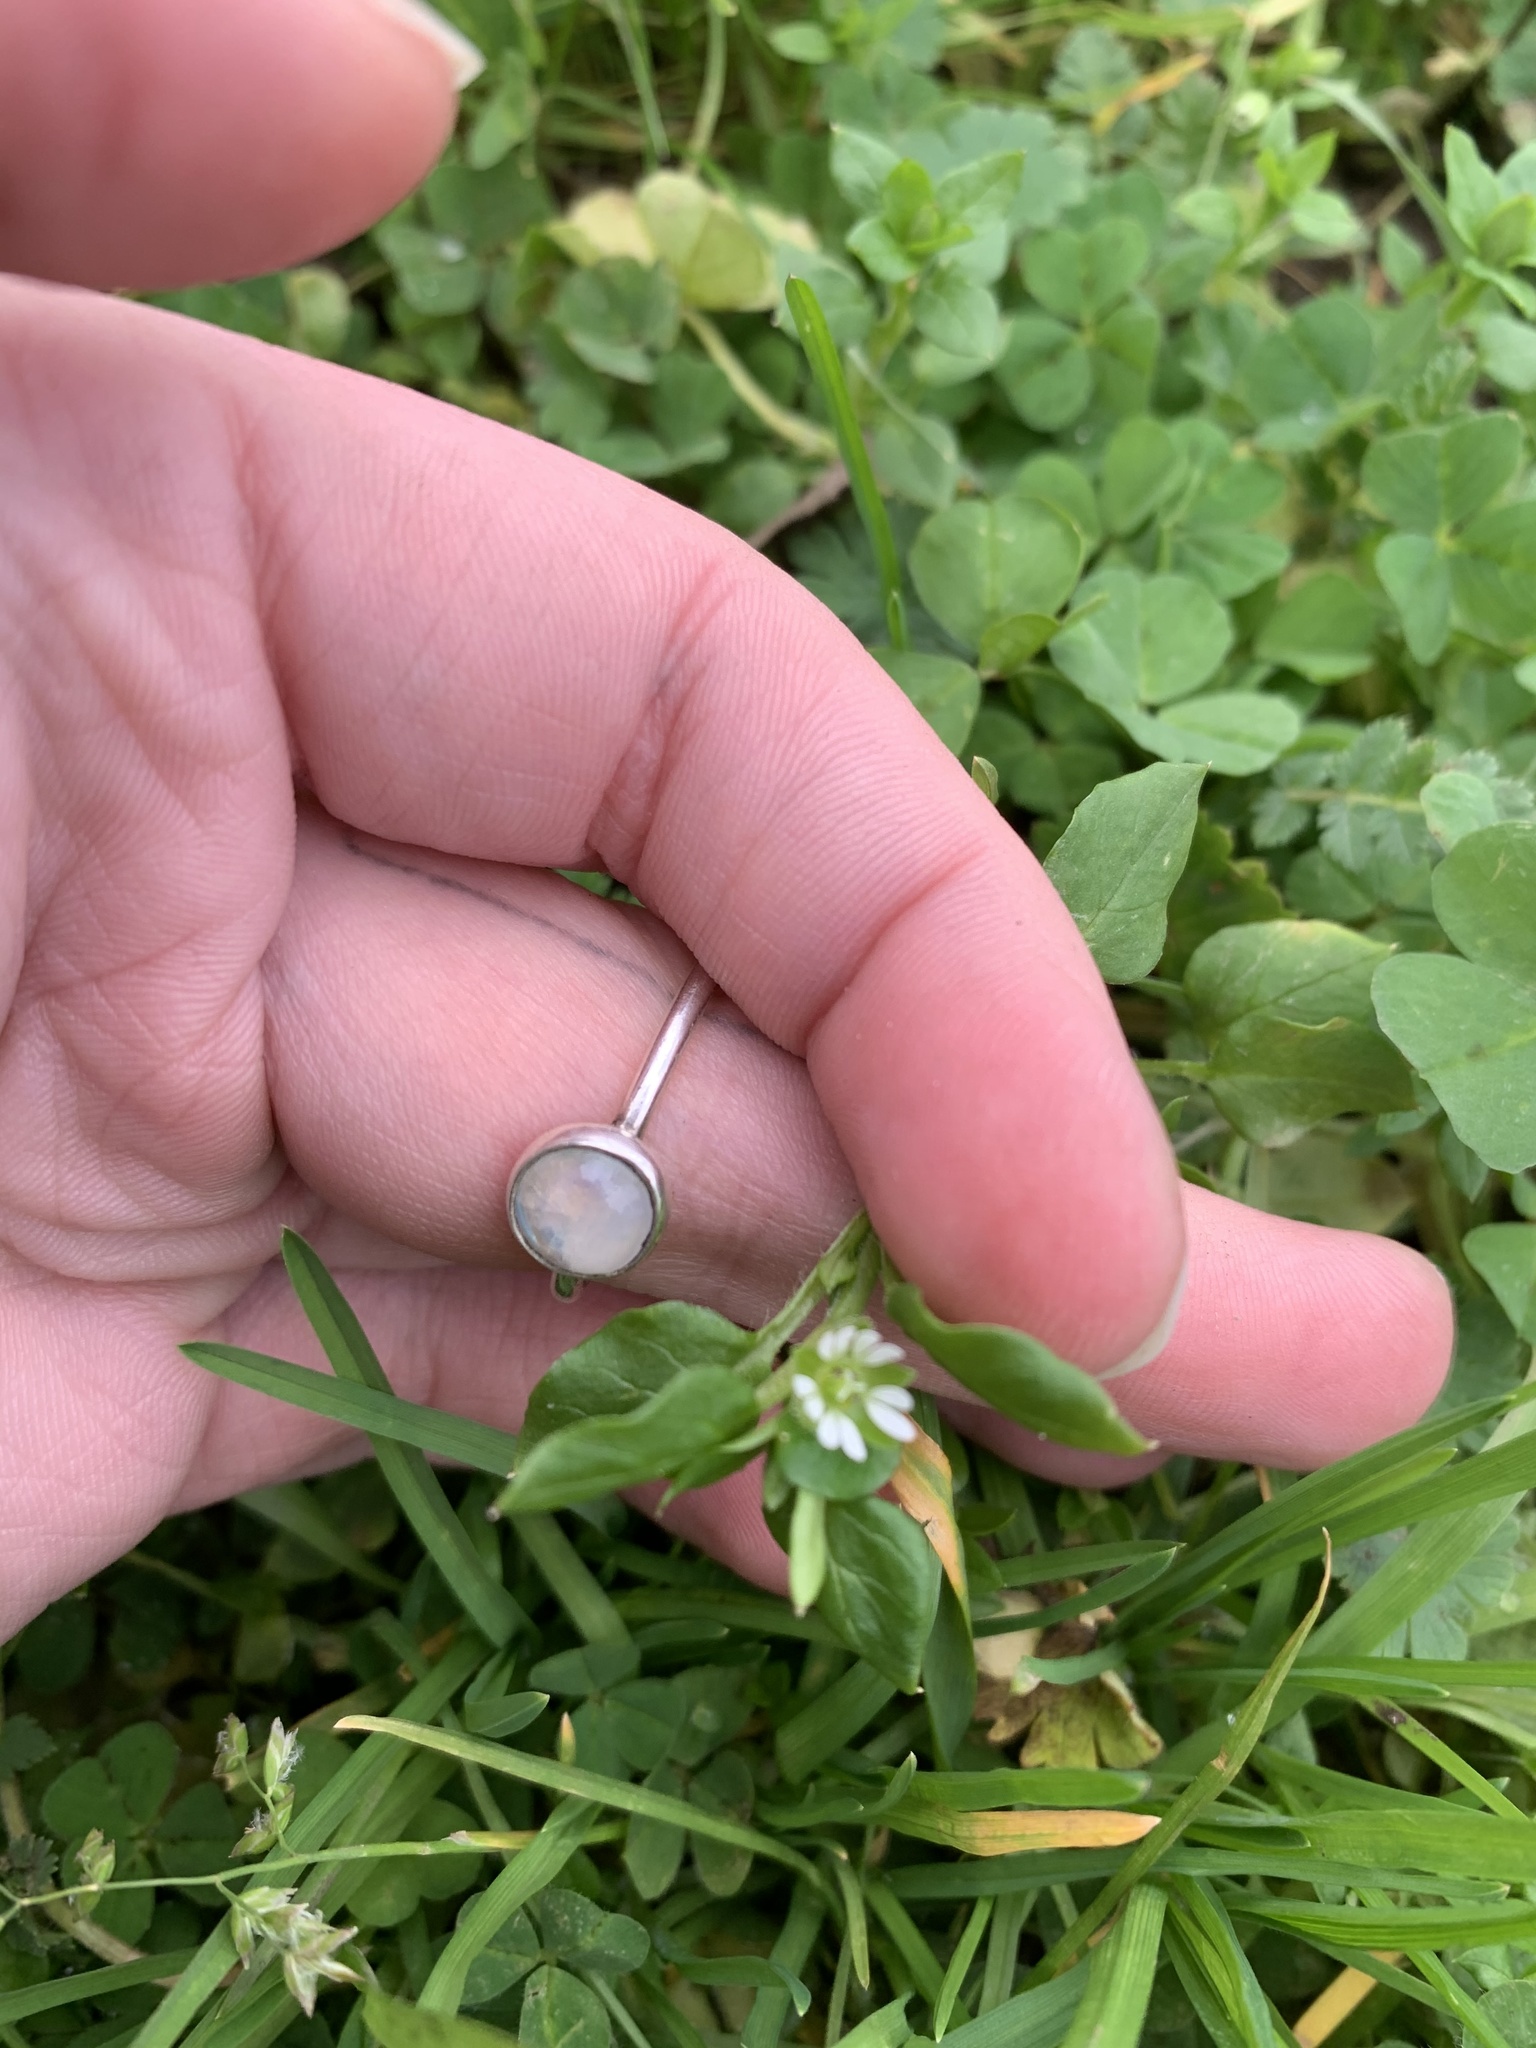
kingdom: Plantae
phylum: Tracheophyta
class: Magnoliopsida
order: Caryophyllales
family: Caryophyllaceae
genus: Stellaria
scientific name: Stellaria media
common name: Common chickweed
